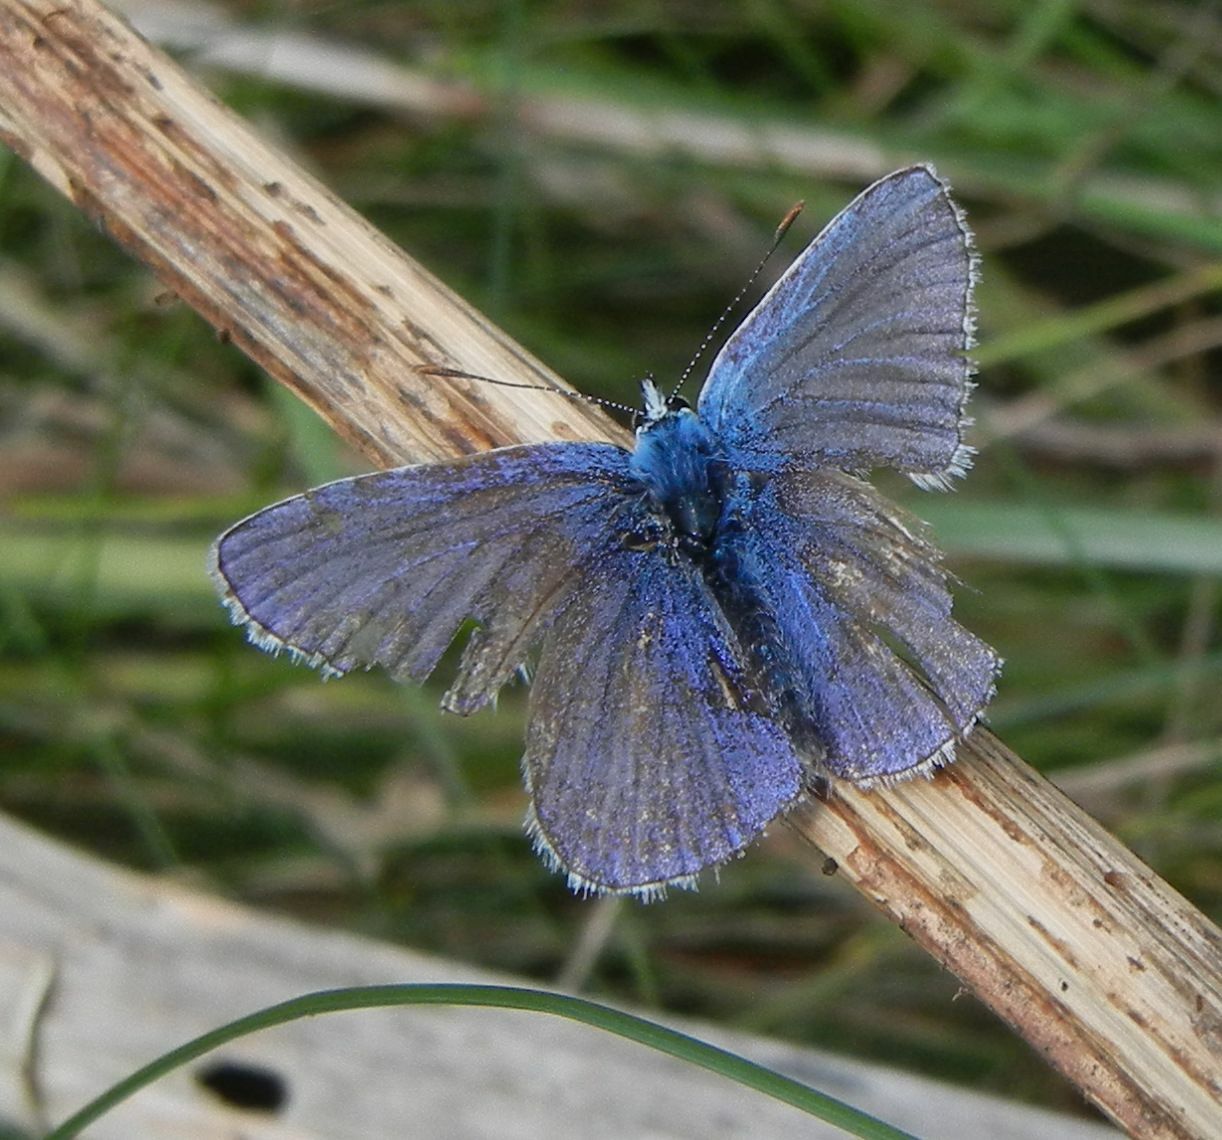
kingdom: Animalia
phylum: Arthropoda
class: Insecta
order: Lepidoptera
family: Lycaenidae
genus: Polyommatus
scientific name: Polyommatus icarus
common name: Common blue
